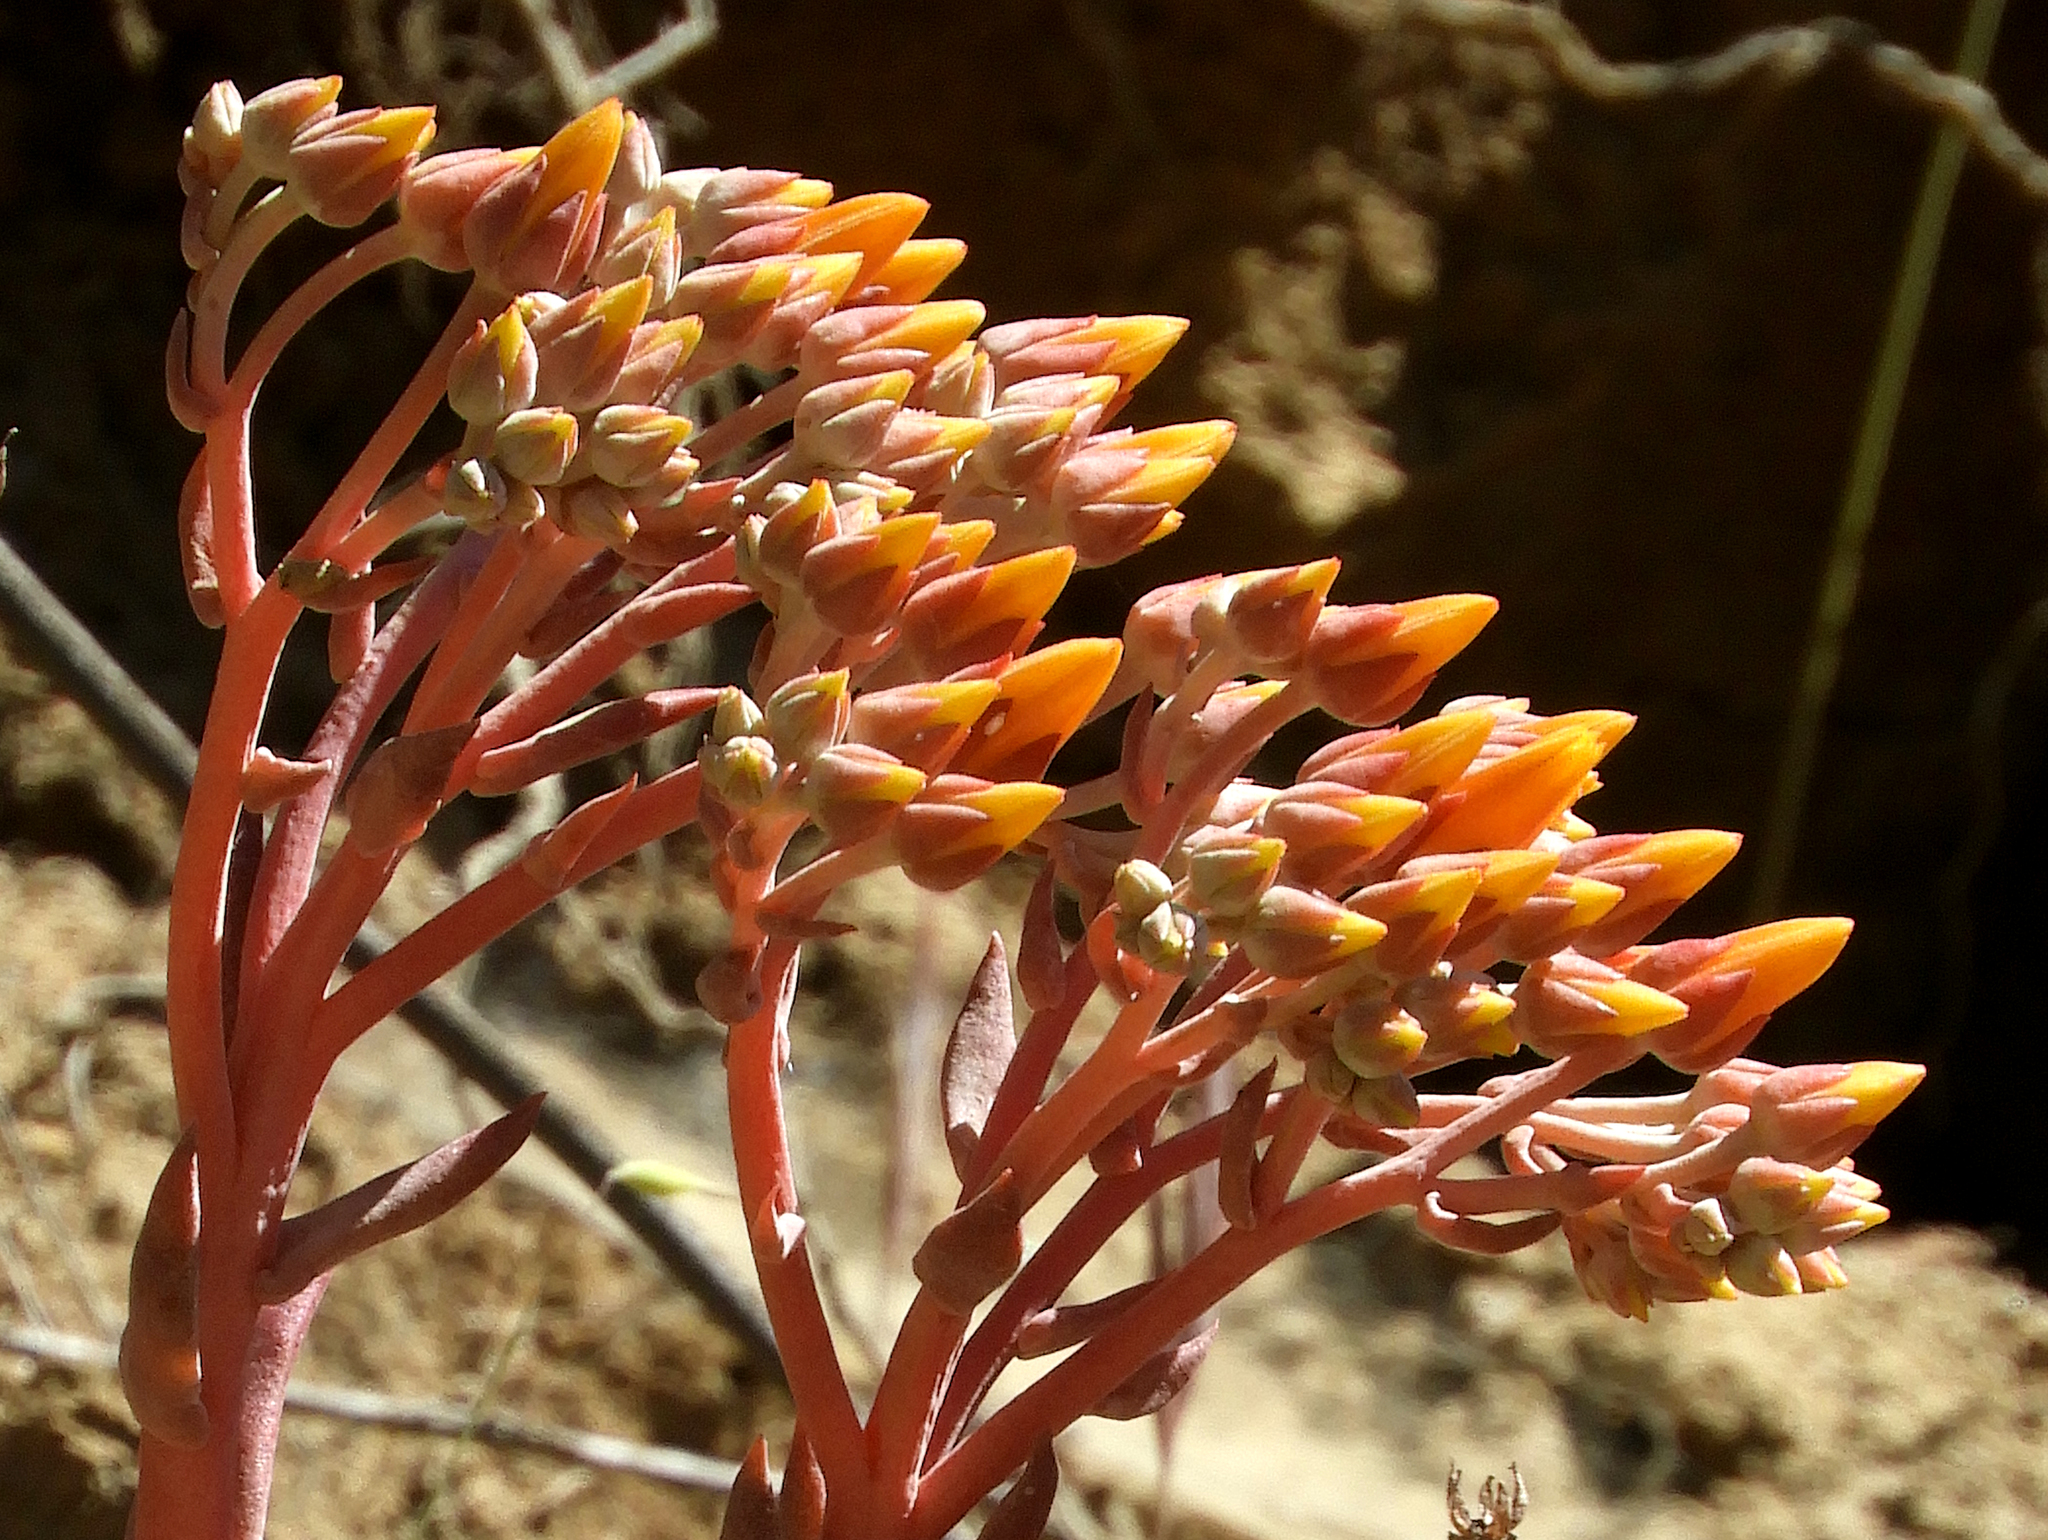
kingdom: Plantae
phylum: Tracheophyta
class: Magnoliopsida
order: Saxifragales
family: Crassulaceae
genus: Dudleya
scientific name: Dudleya cymosa
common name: Canyon dudleya
